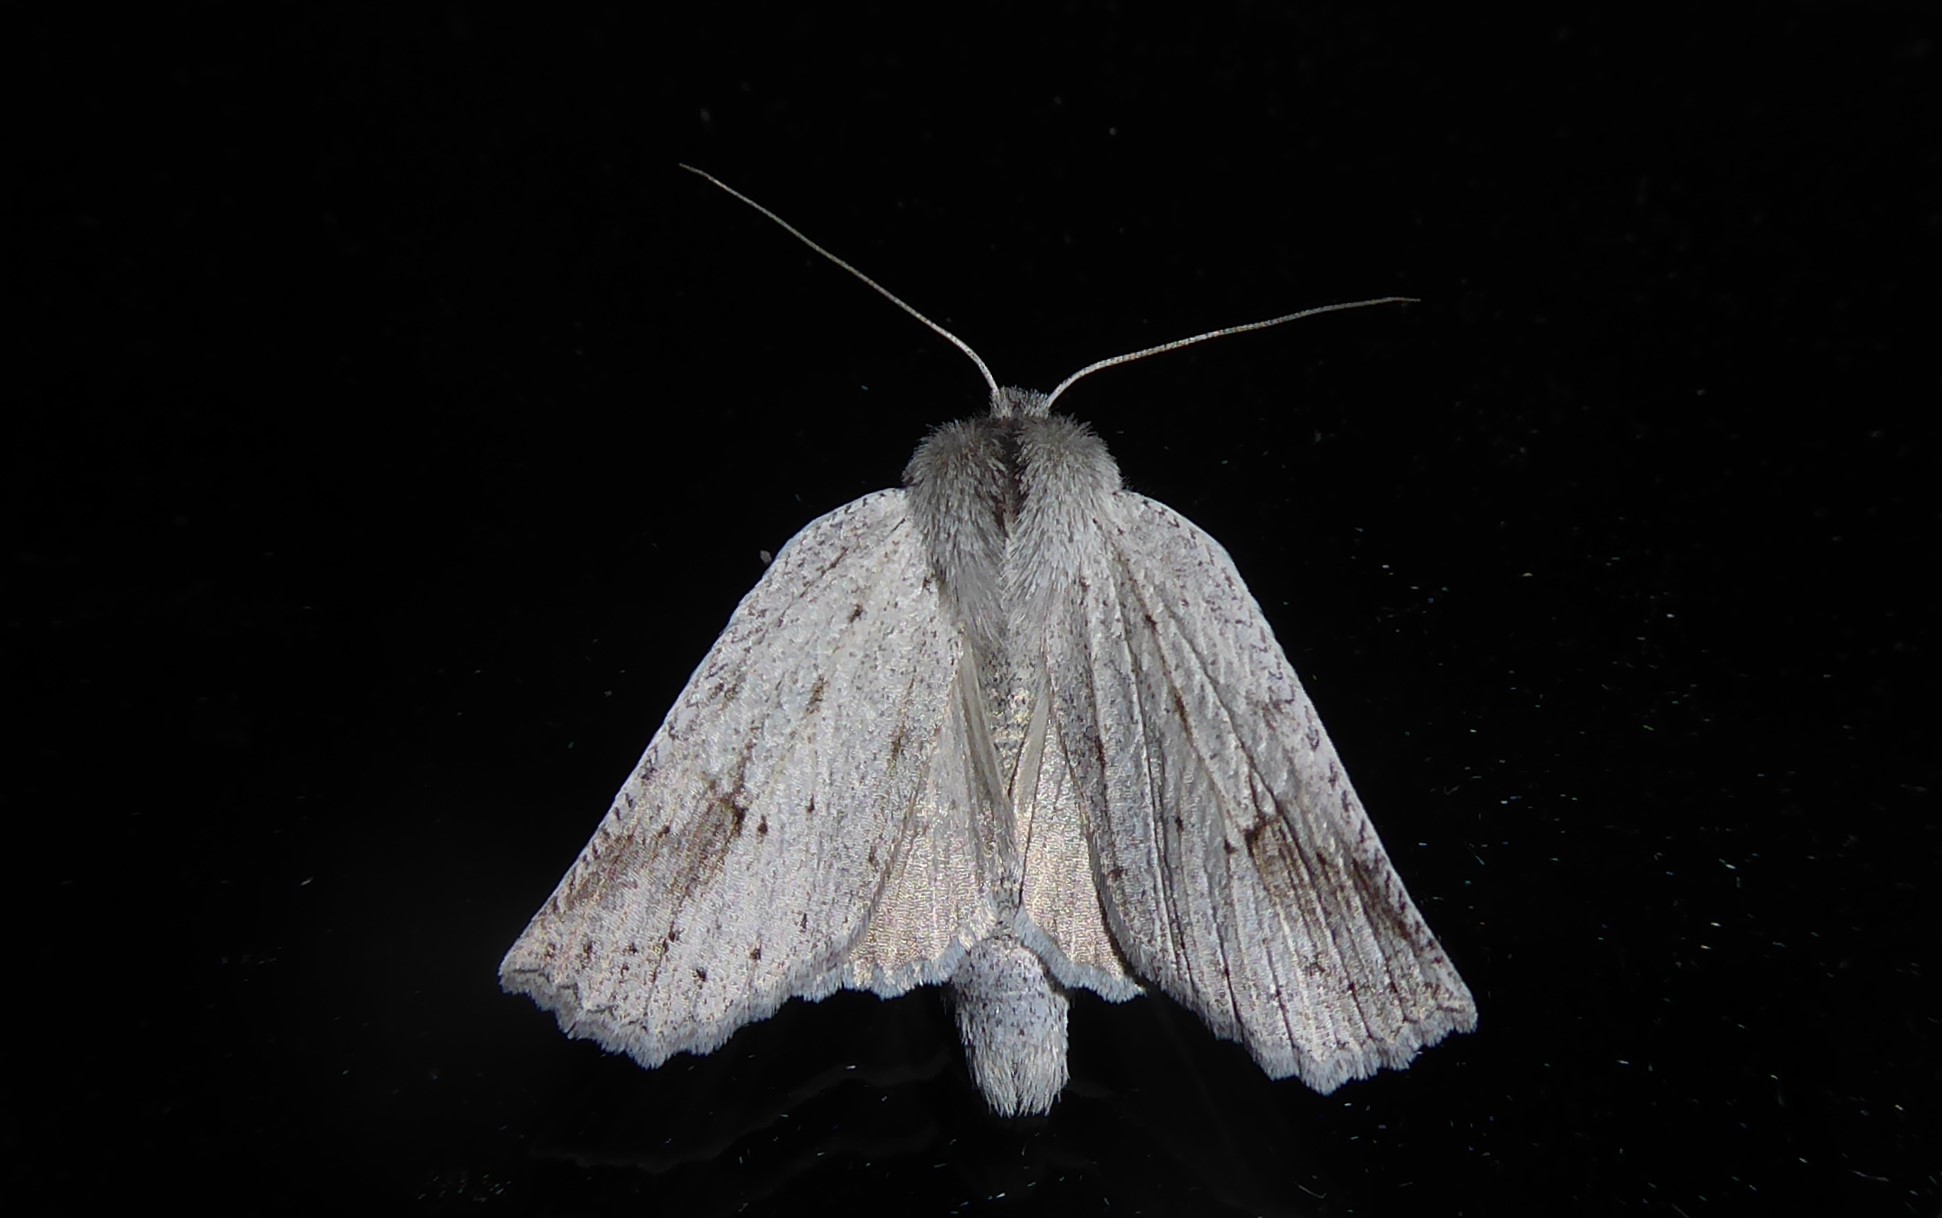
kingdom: Animalia
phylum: Arthropoda
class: Insecta
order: Lepidoptera
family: Geometridae
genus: Declana
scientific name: Declana leptomera
